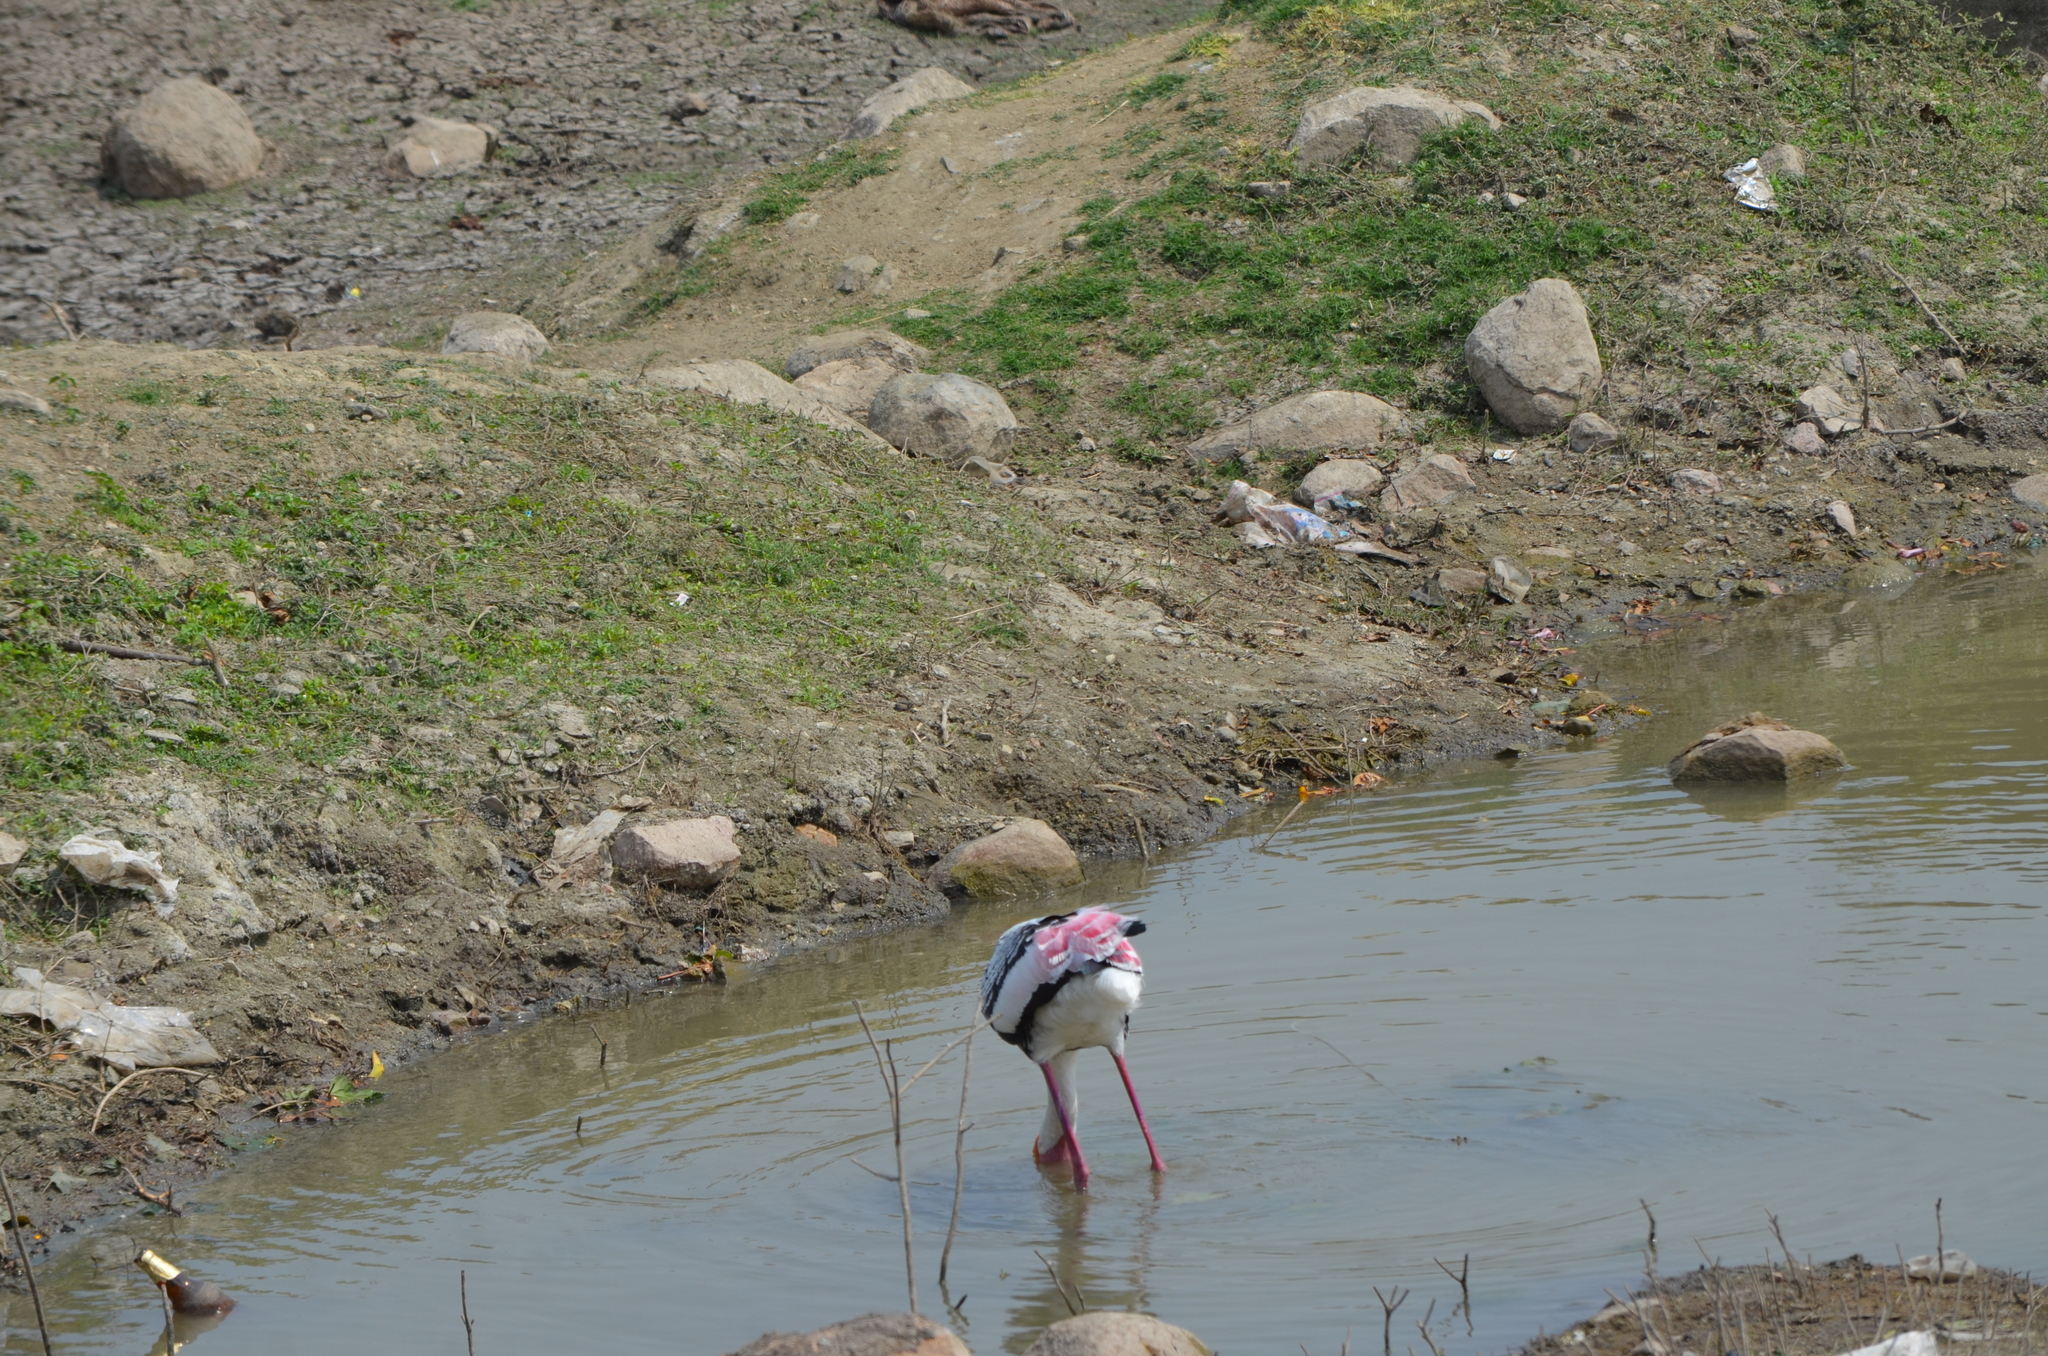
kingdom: Animalia
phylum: Chordata
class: Aves
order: Ciconiiformes
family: Ciconiidae
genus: Mycteria
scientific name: Mycteria leucocephala
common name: Painted stork
